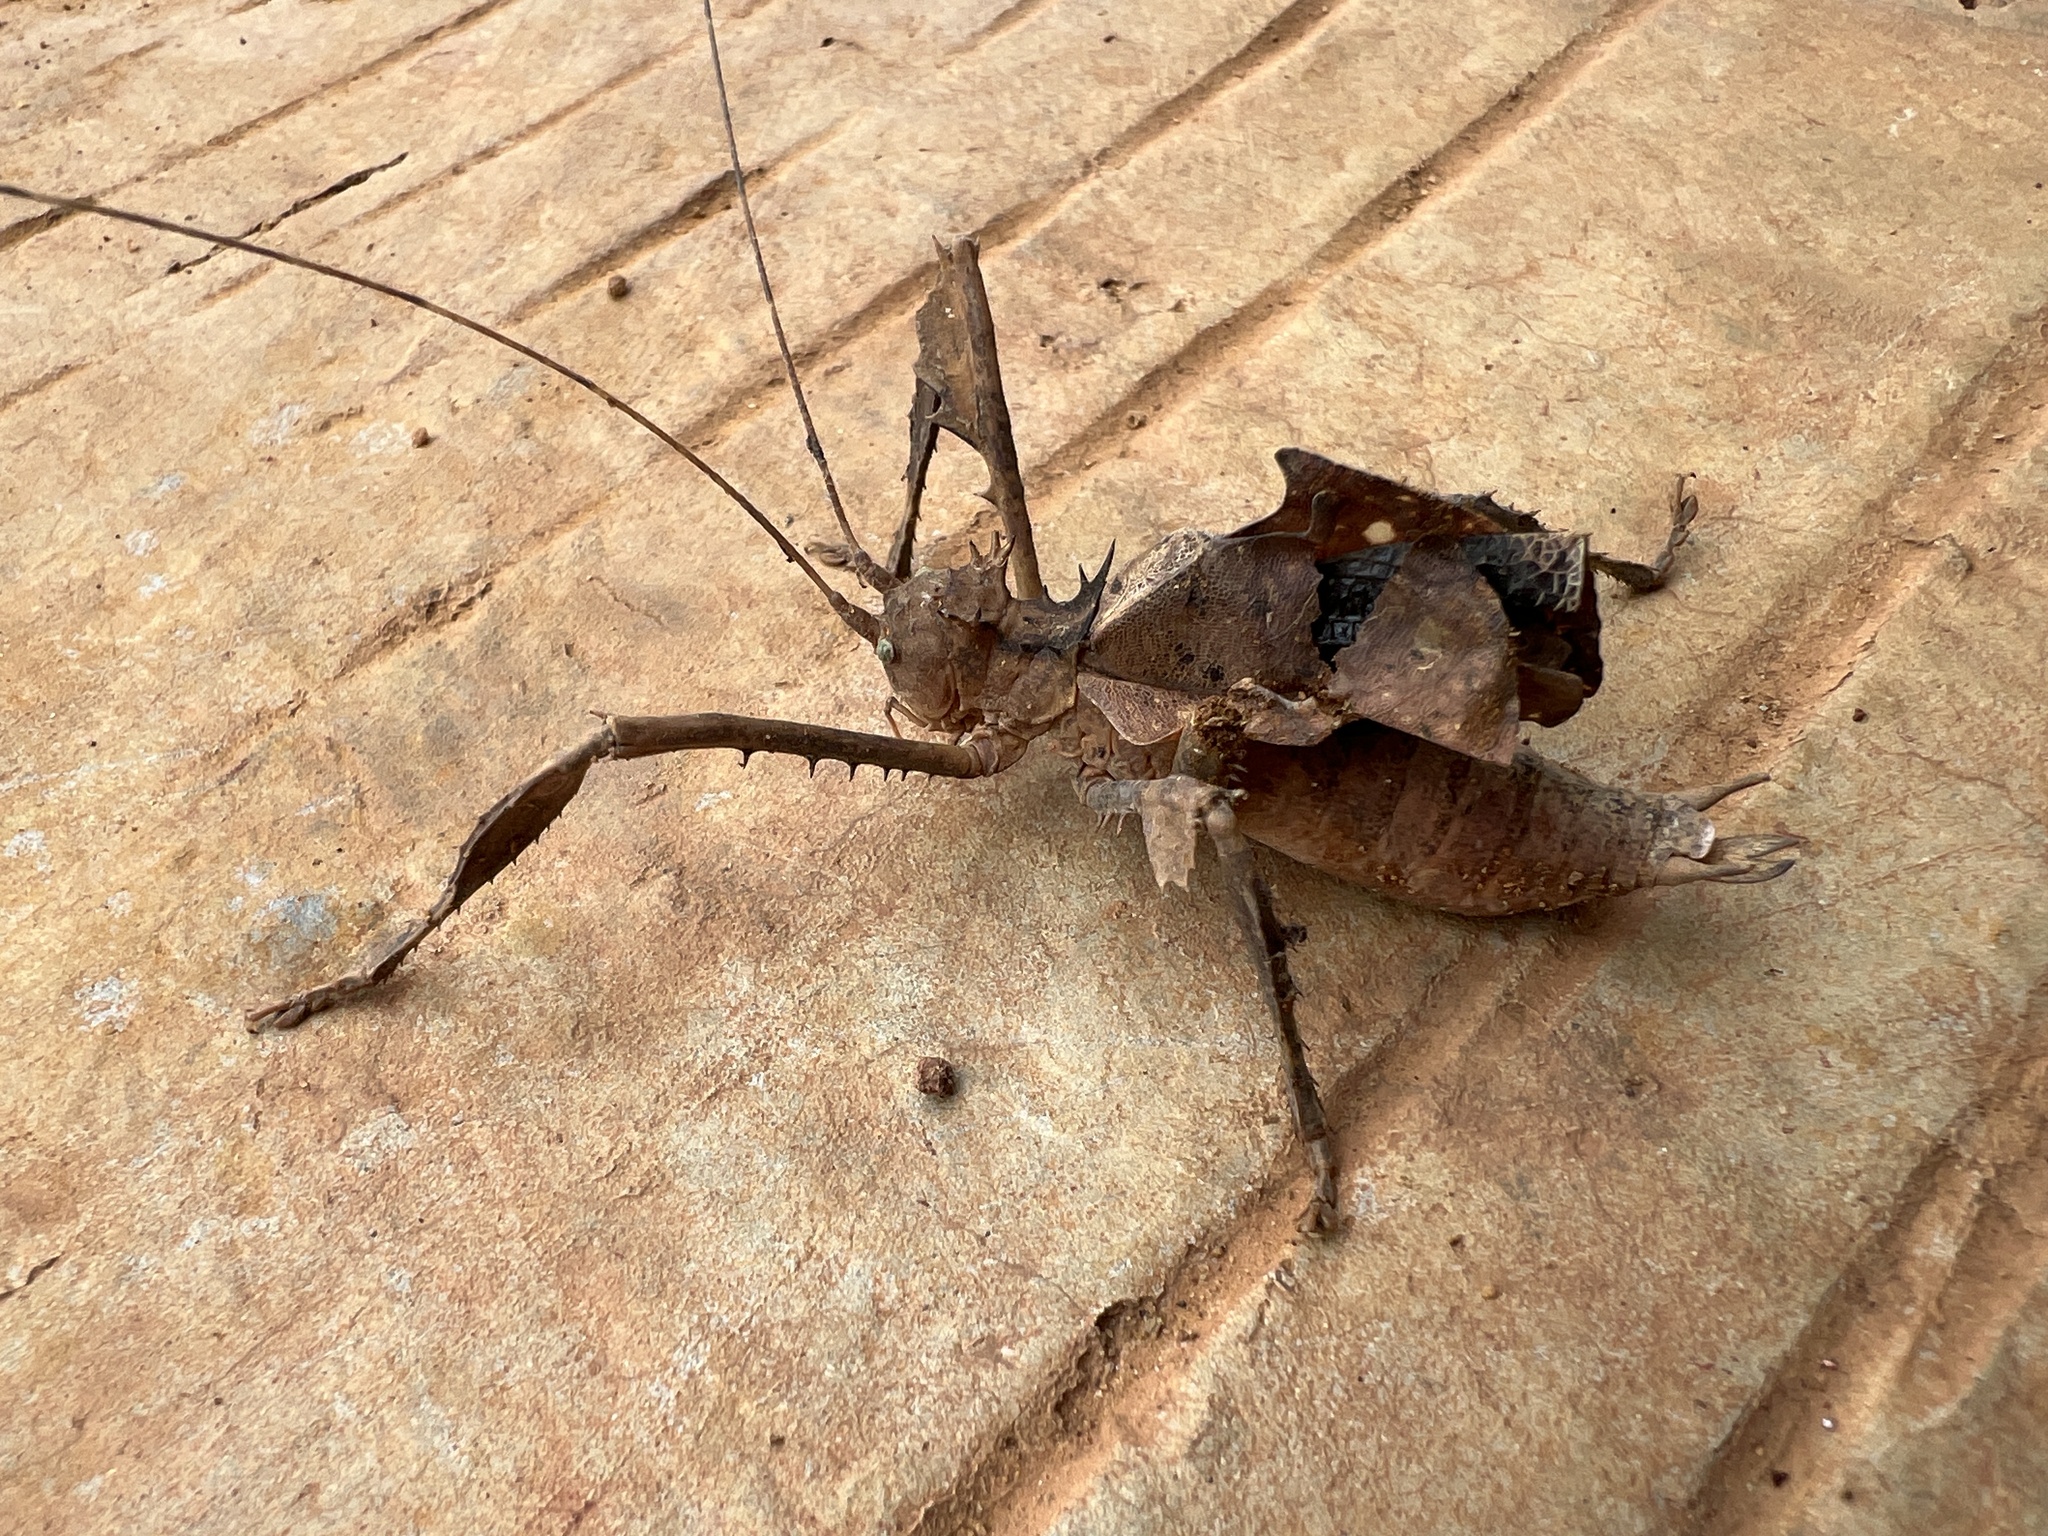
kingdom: Animalia
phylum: Arthropoda
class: Insecta
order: Orthoptera
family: Tettigoniidae
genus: Acridoxena
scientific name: Acridoxena hewaniana
